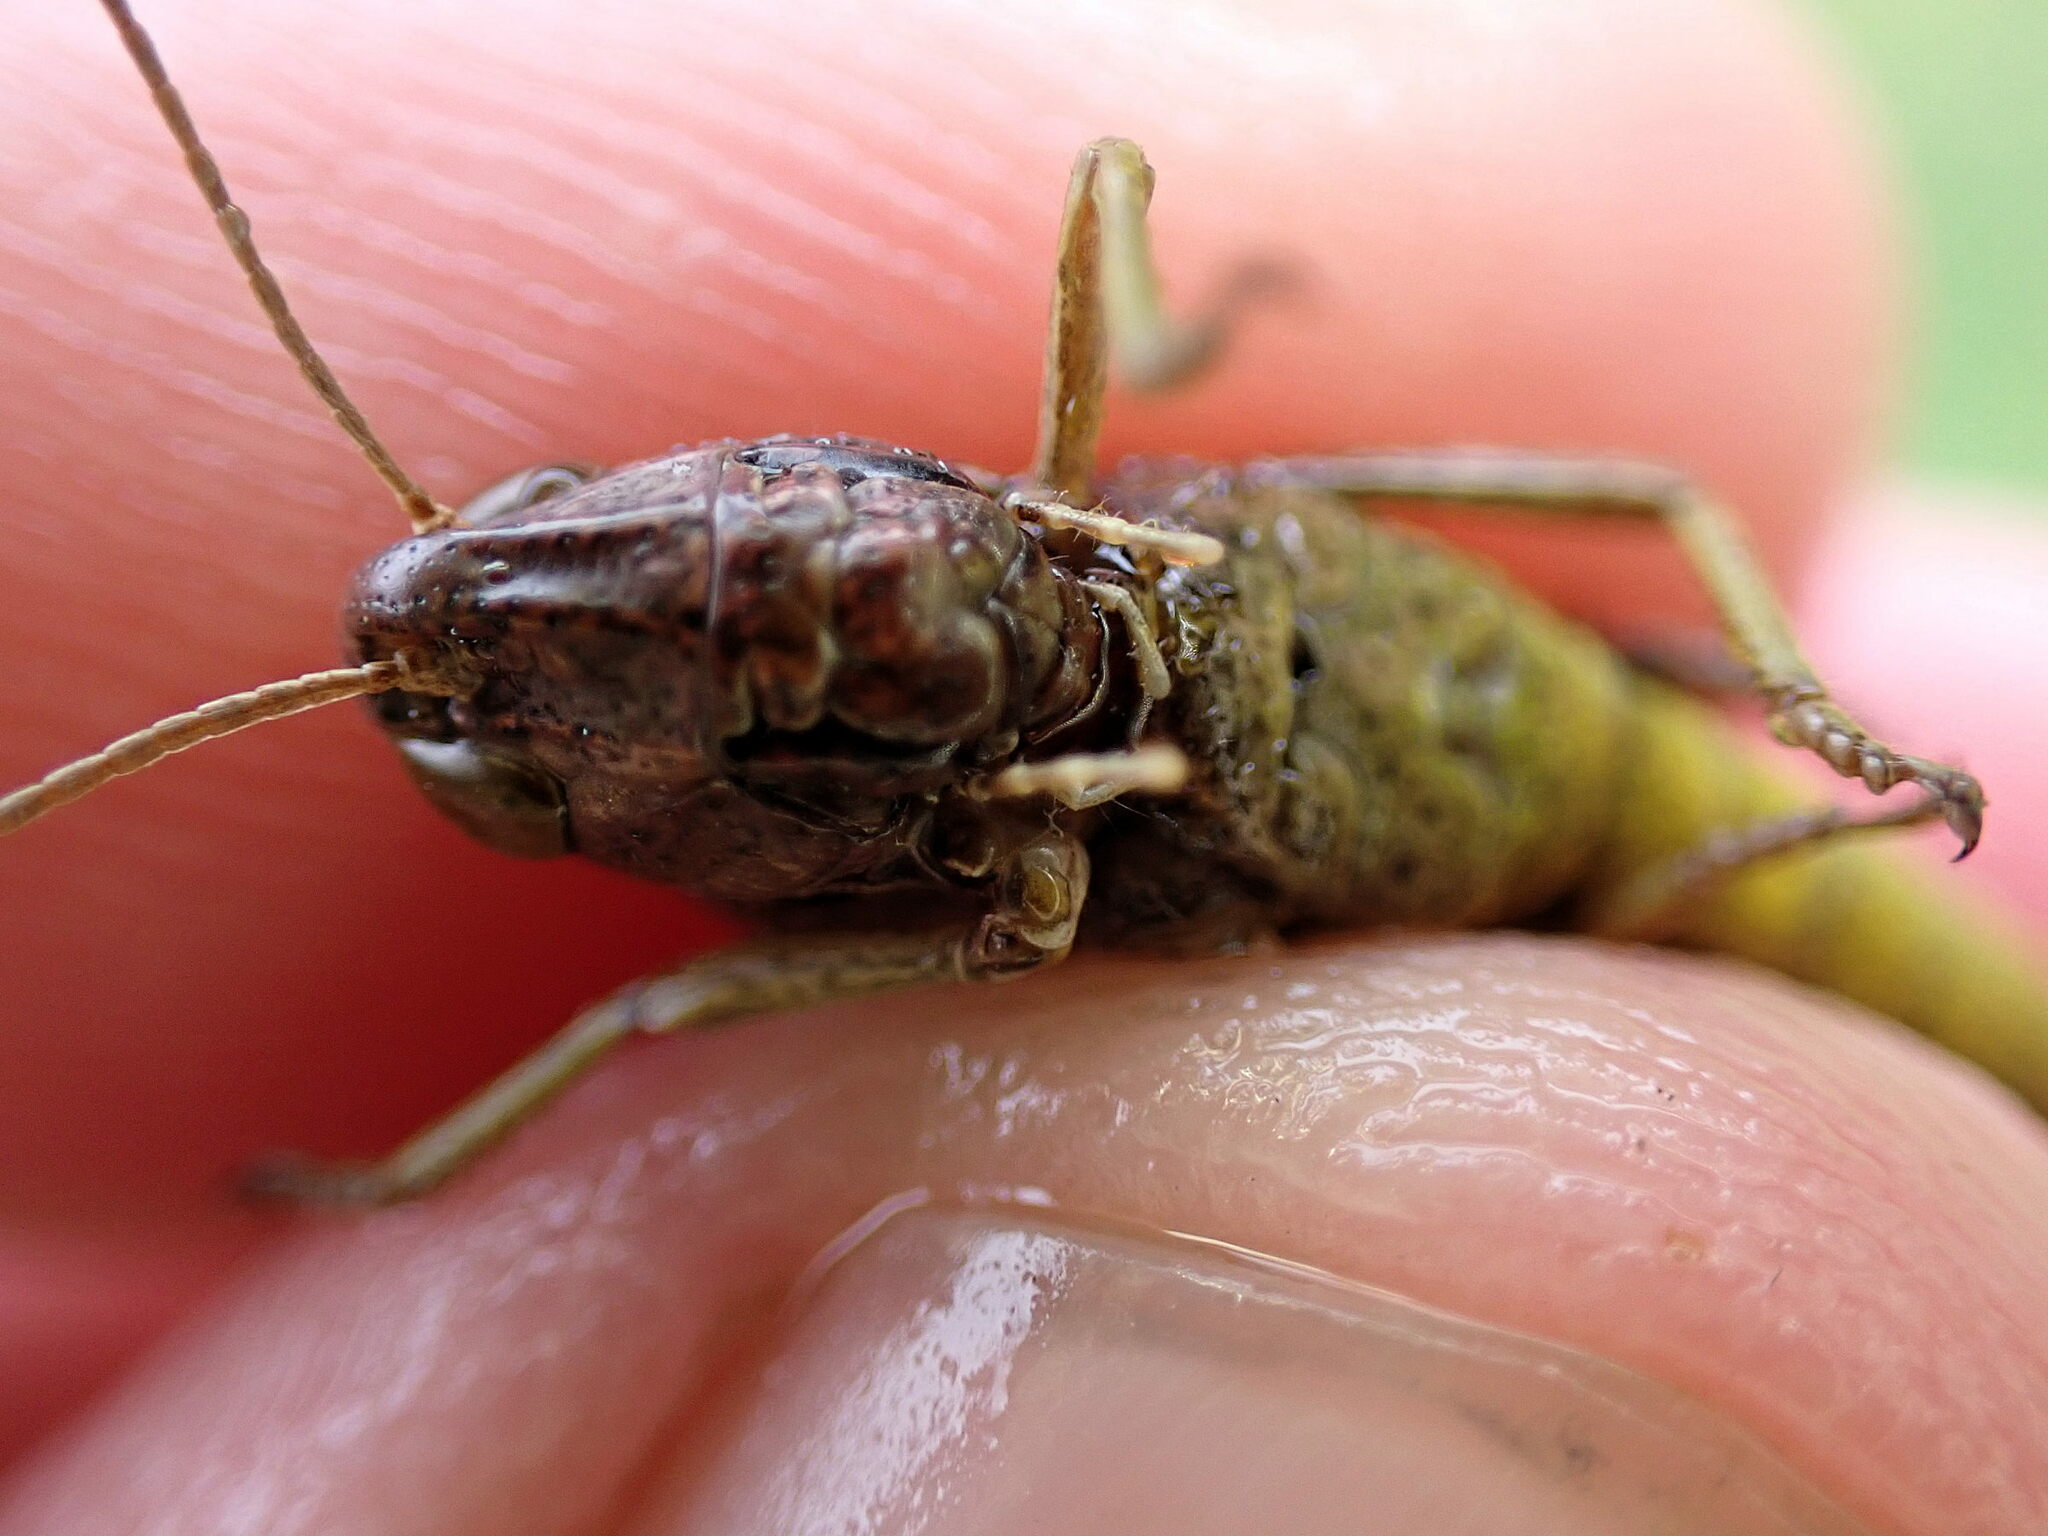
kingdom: Animalia
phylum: Arthropoda
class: Insecta
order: Orthoptera
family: Acrididae
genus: Omocestus
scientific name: Omocestus viridulus
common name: Common green grasshopper
